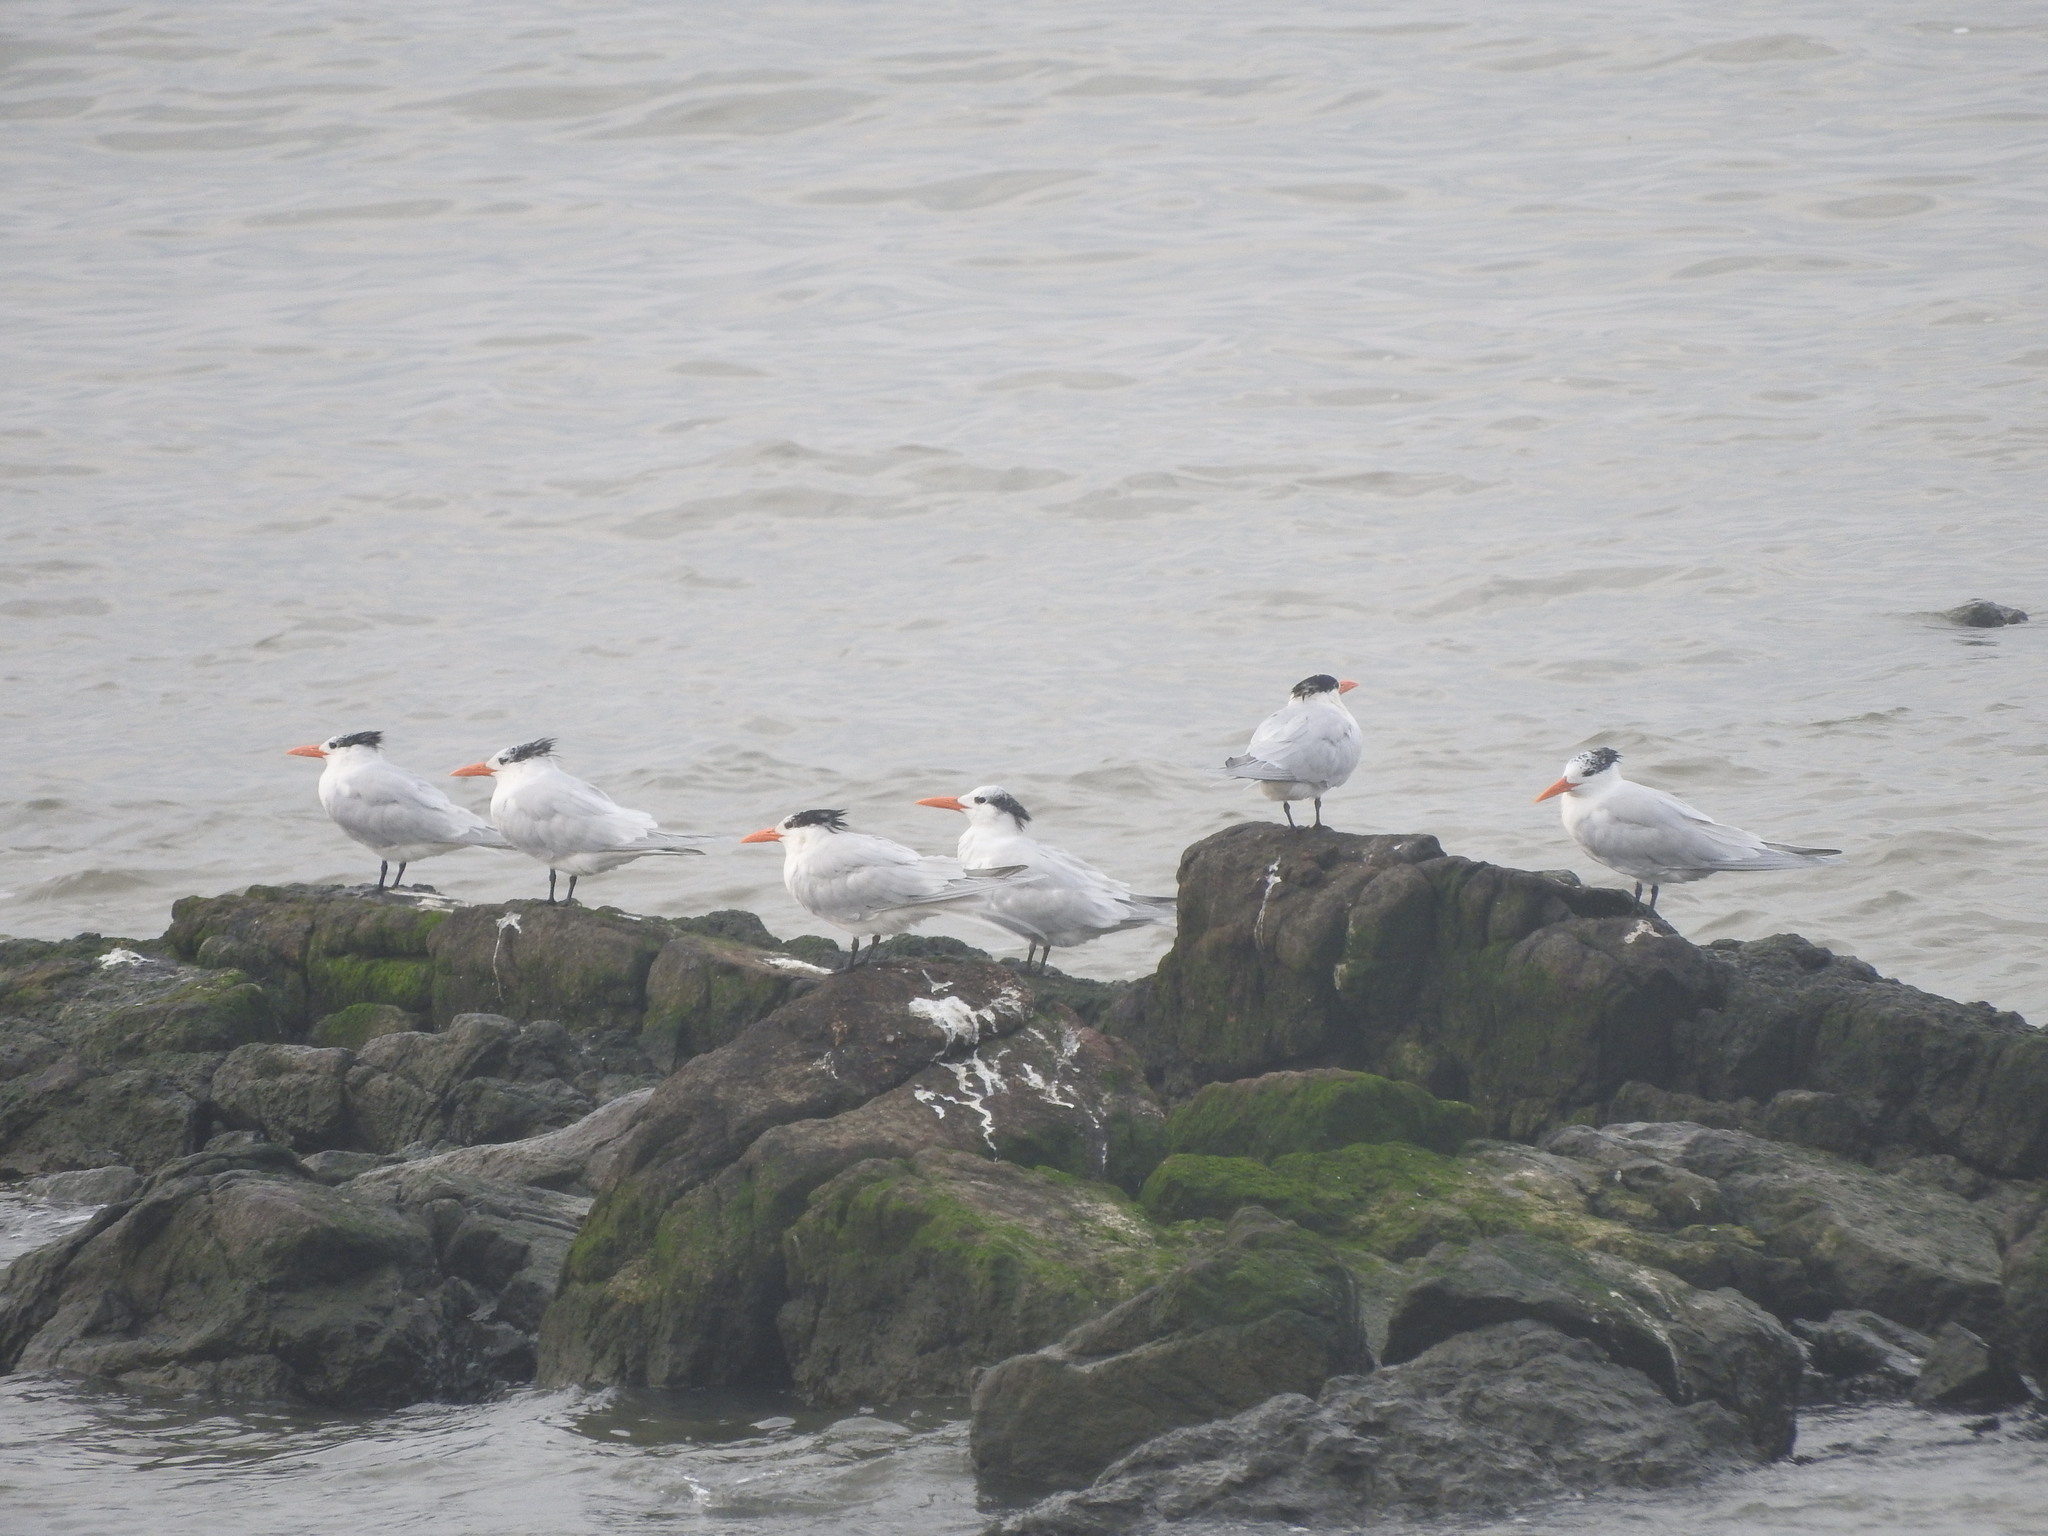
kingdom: Animalia
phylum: Chordata
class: Aves
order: Charadriiformes
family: Laridae
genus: Thalasseus
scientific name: Thalasseus maximus
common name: Royal tern
